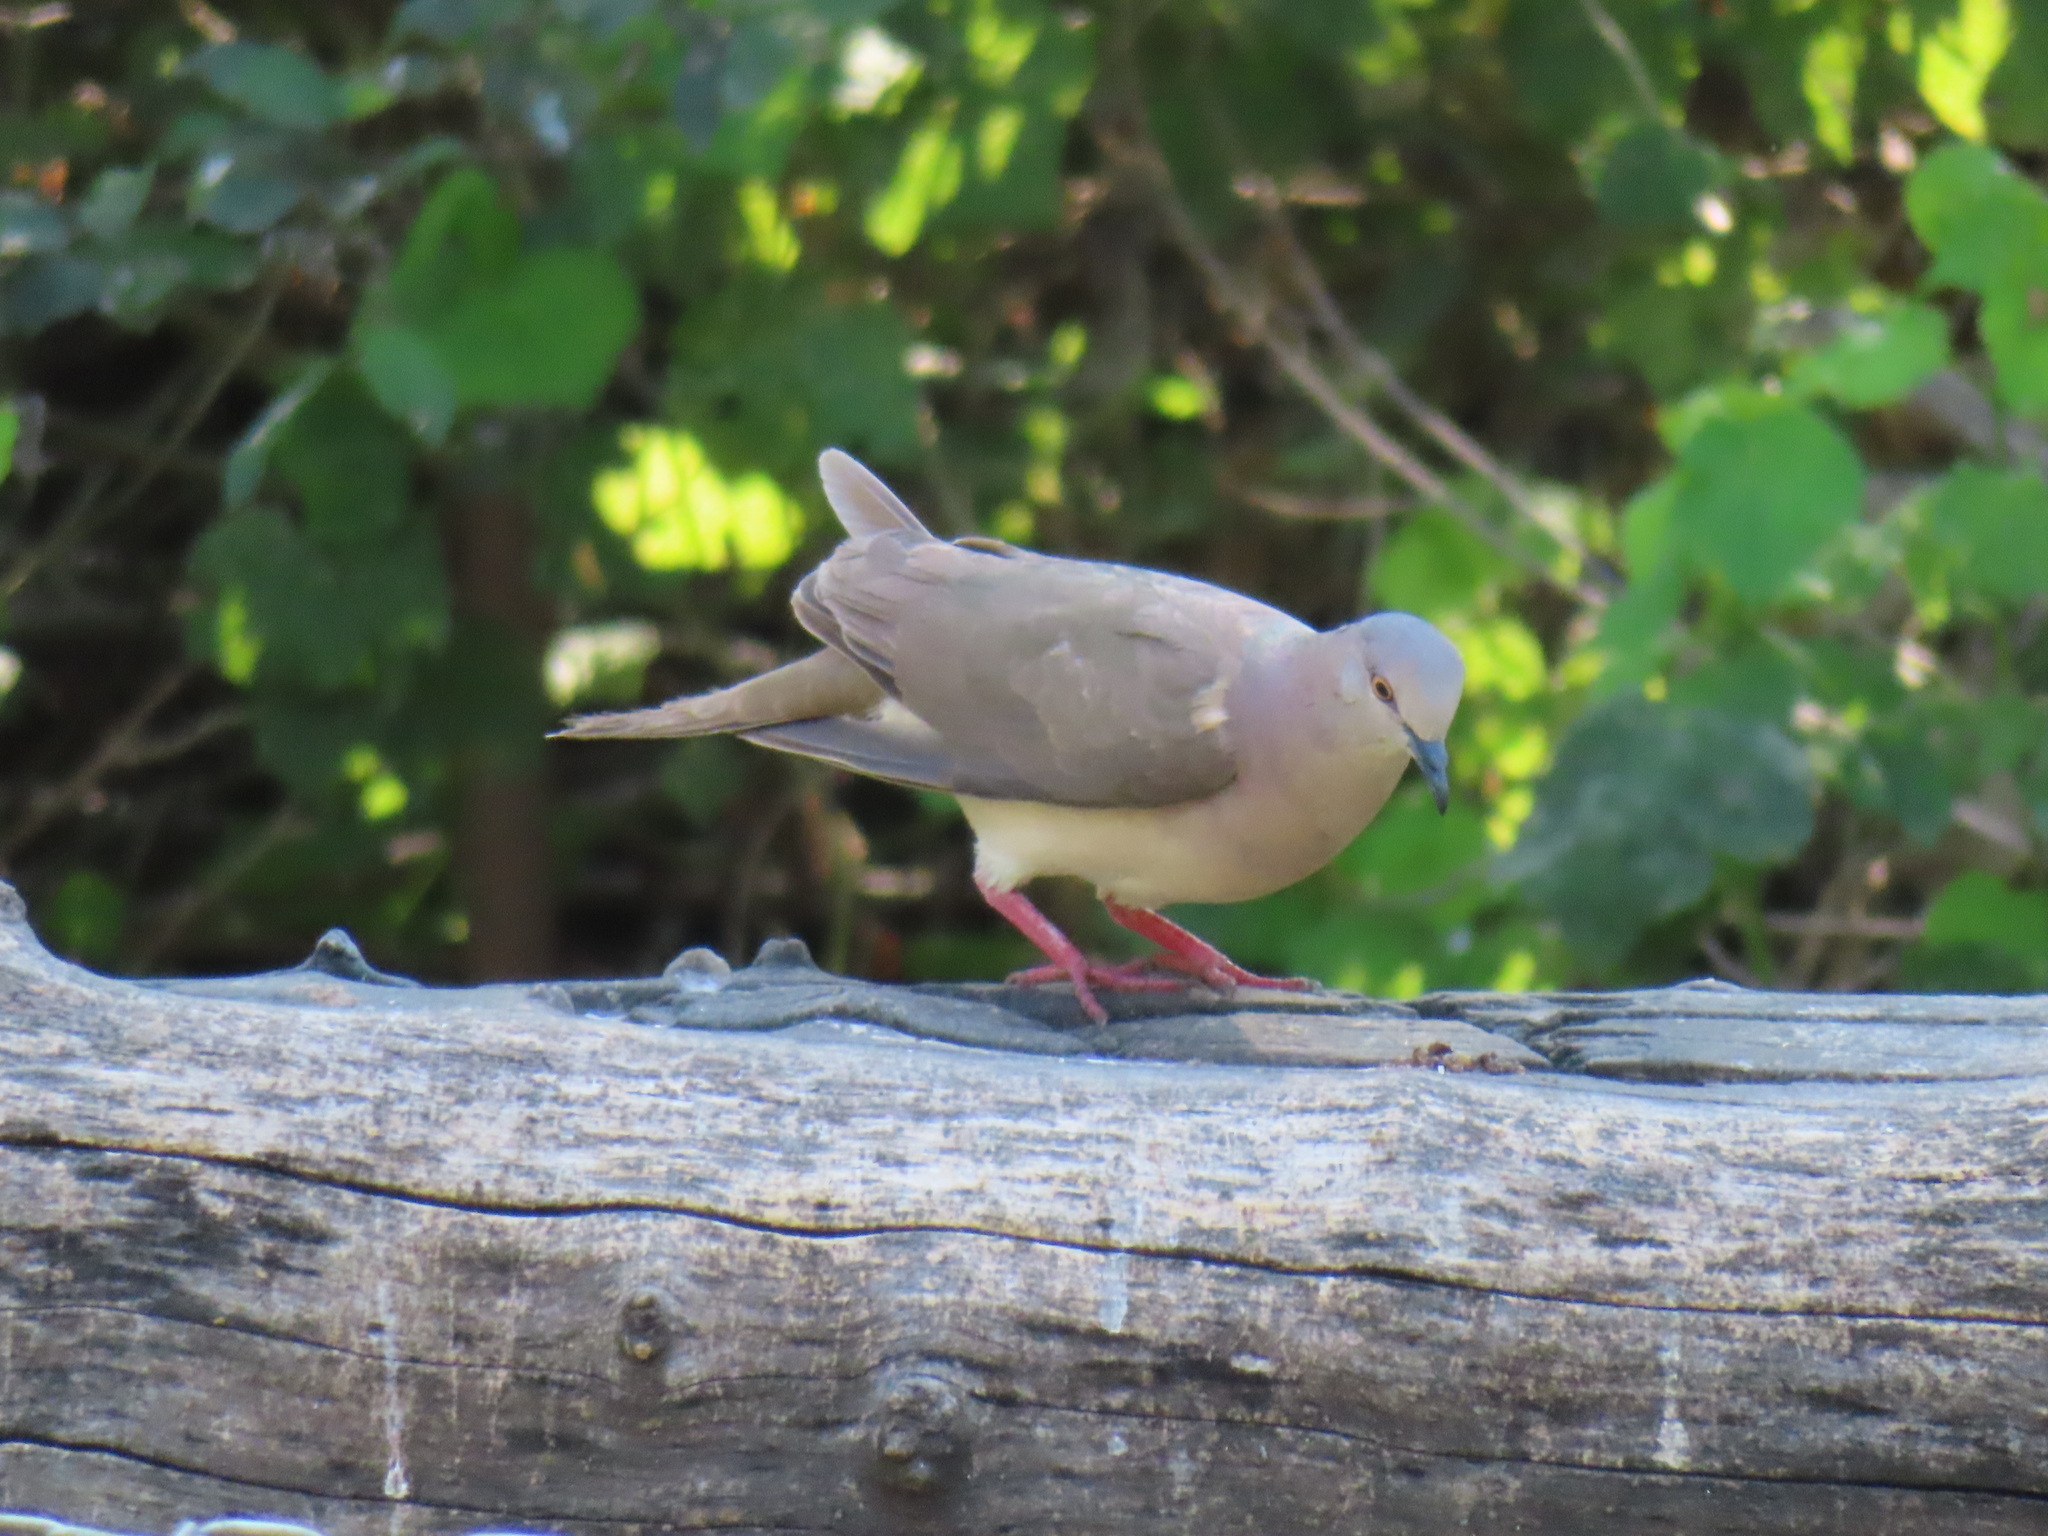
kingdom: Animalia
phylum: Chordata
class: Aves
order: Columbiformes
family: Columbidae
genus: Leptotila
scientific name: Leptotila verreauxi
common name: White-tipped dove
